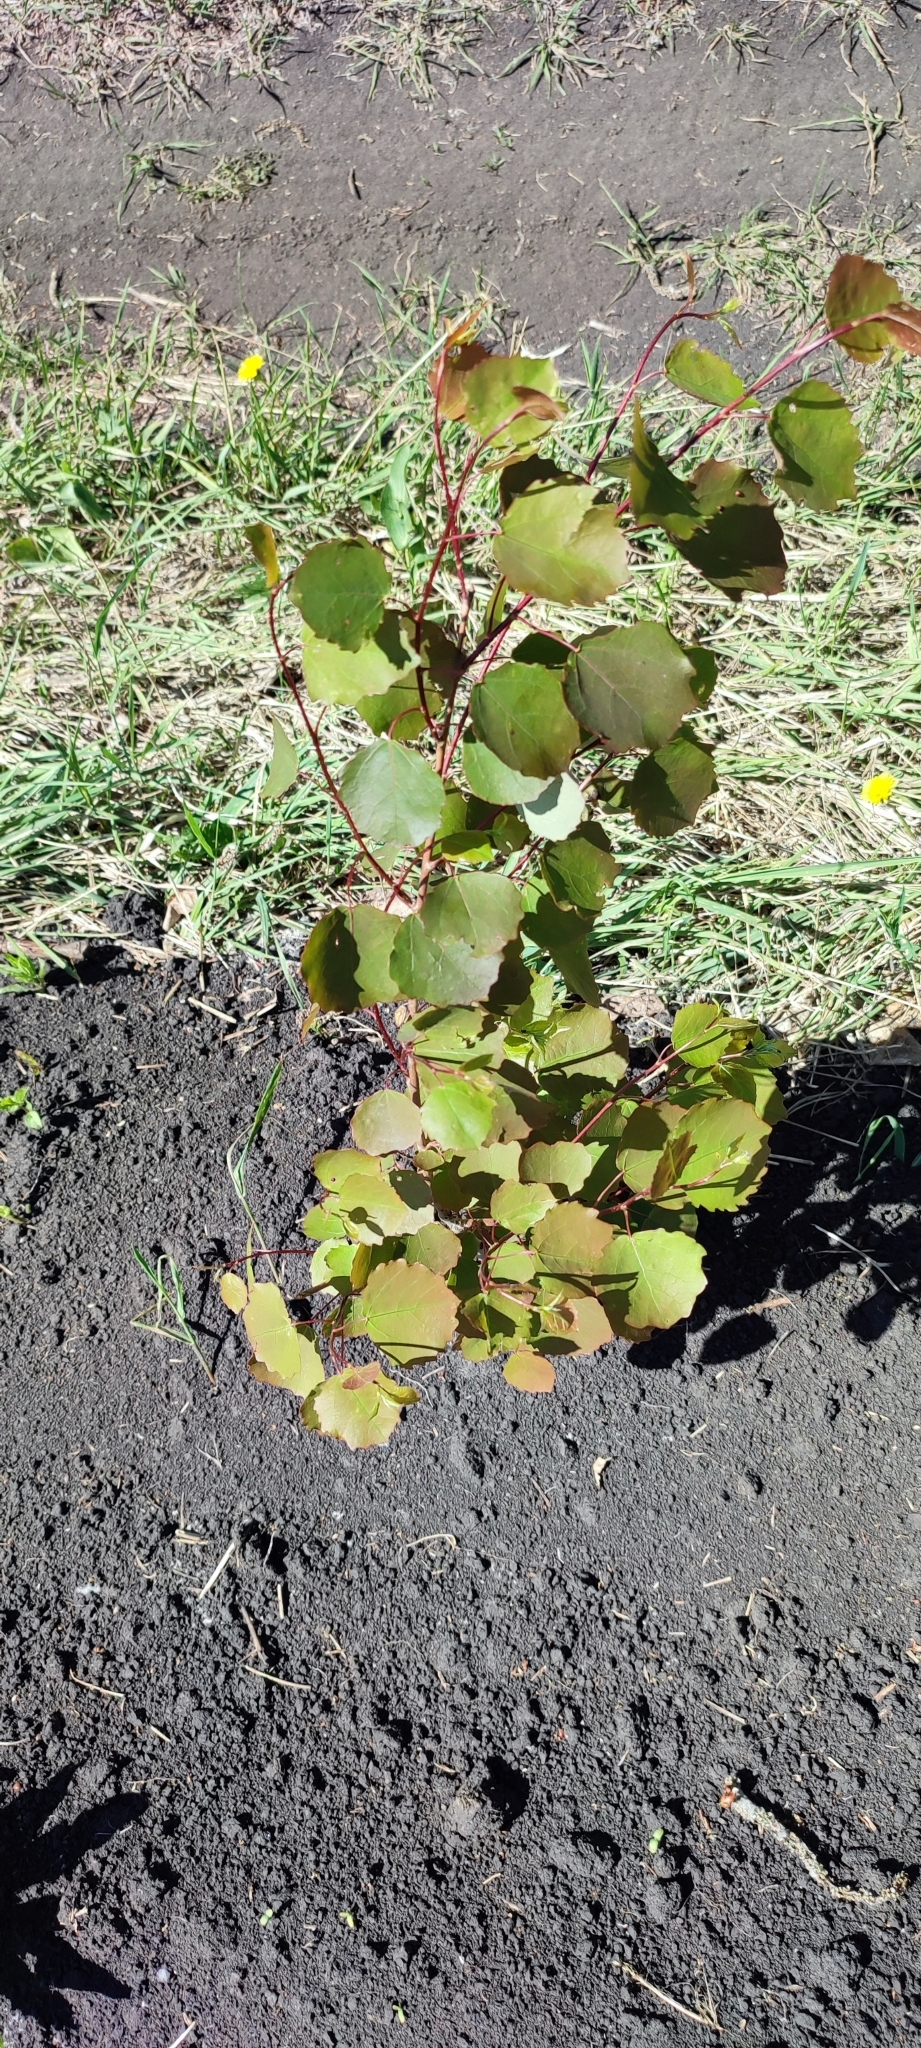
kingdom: Plantae
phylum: Tracheophyta
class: Magnoliopsida
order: Malpighiales
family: Salicaceae
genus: Populus
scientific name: Populus tremula
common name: European aspen
